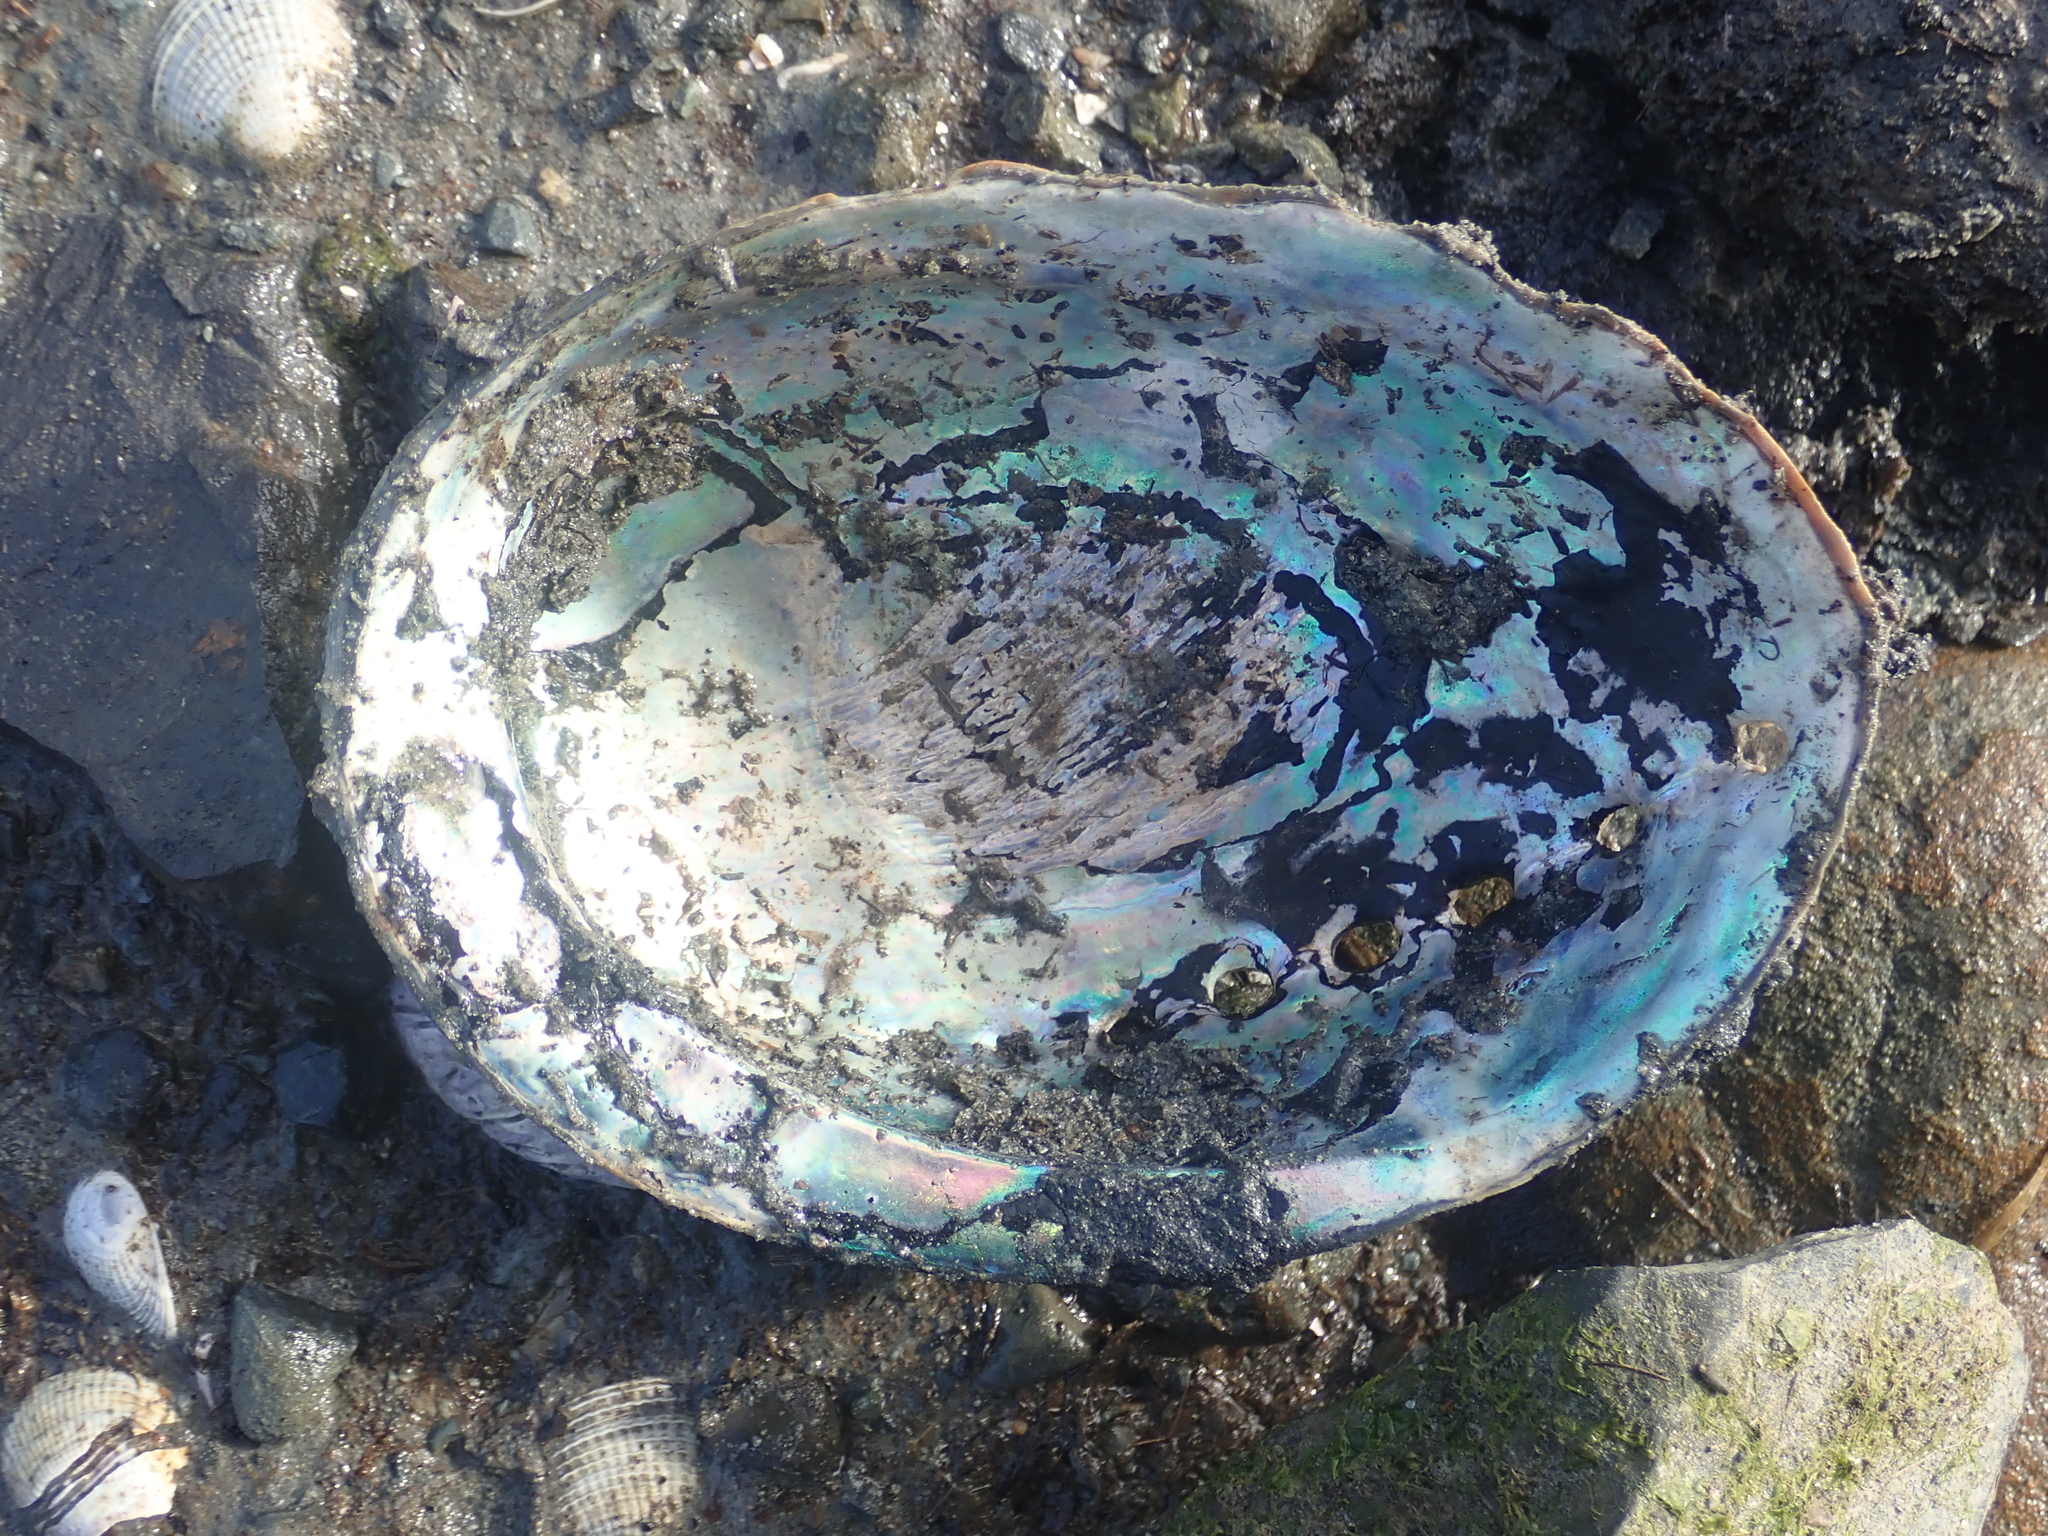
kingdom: Animalia
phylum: Mollusca
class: Gastropoda
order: Lepetellida
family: Haliotidae
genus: Haliotis
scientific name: Haliotis iris
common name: Abalone
